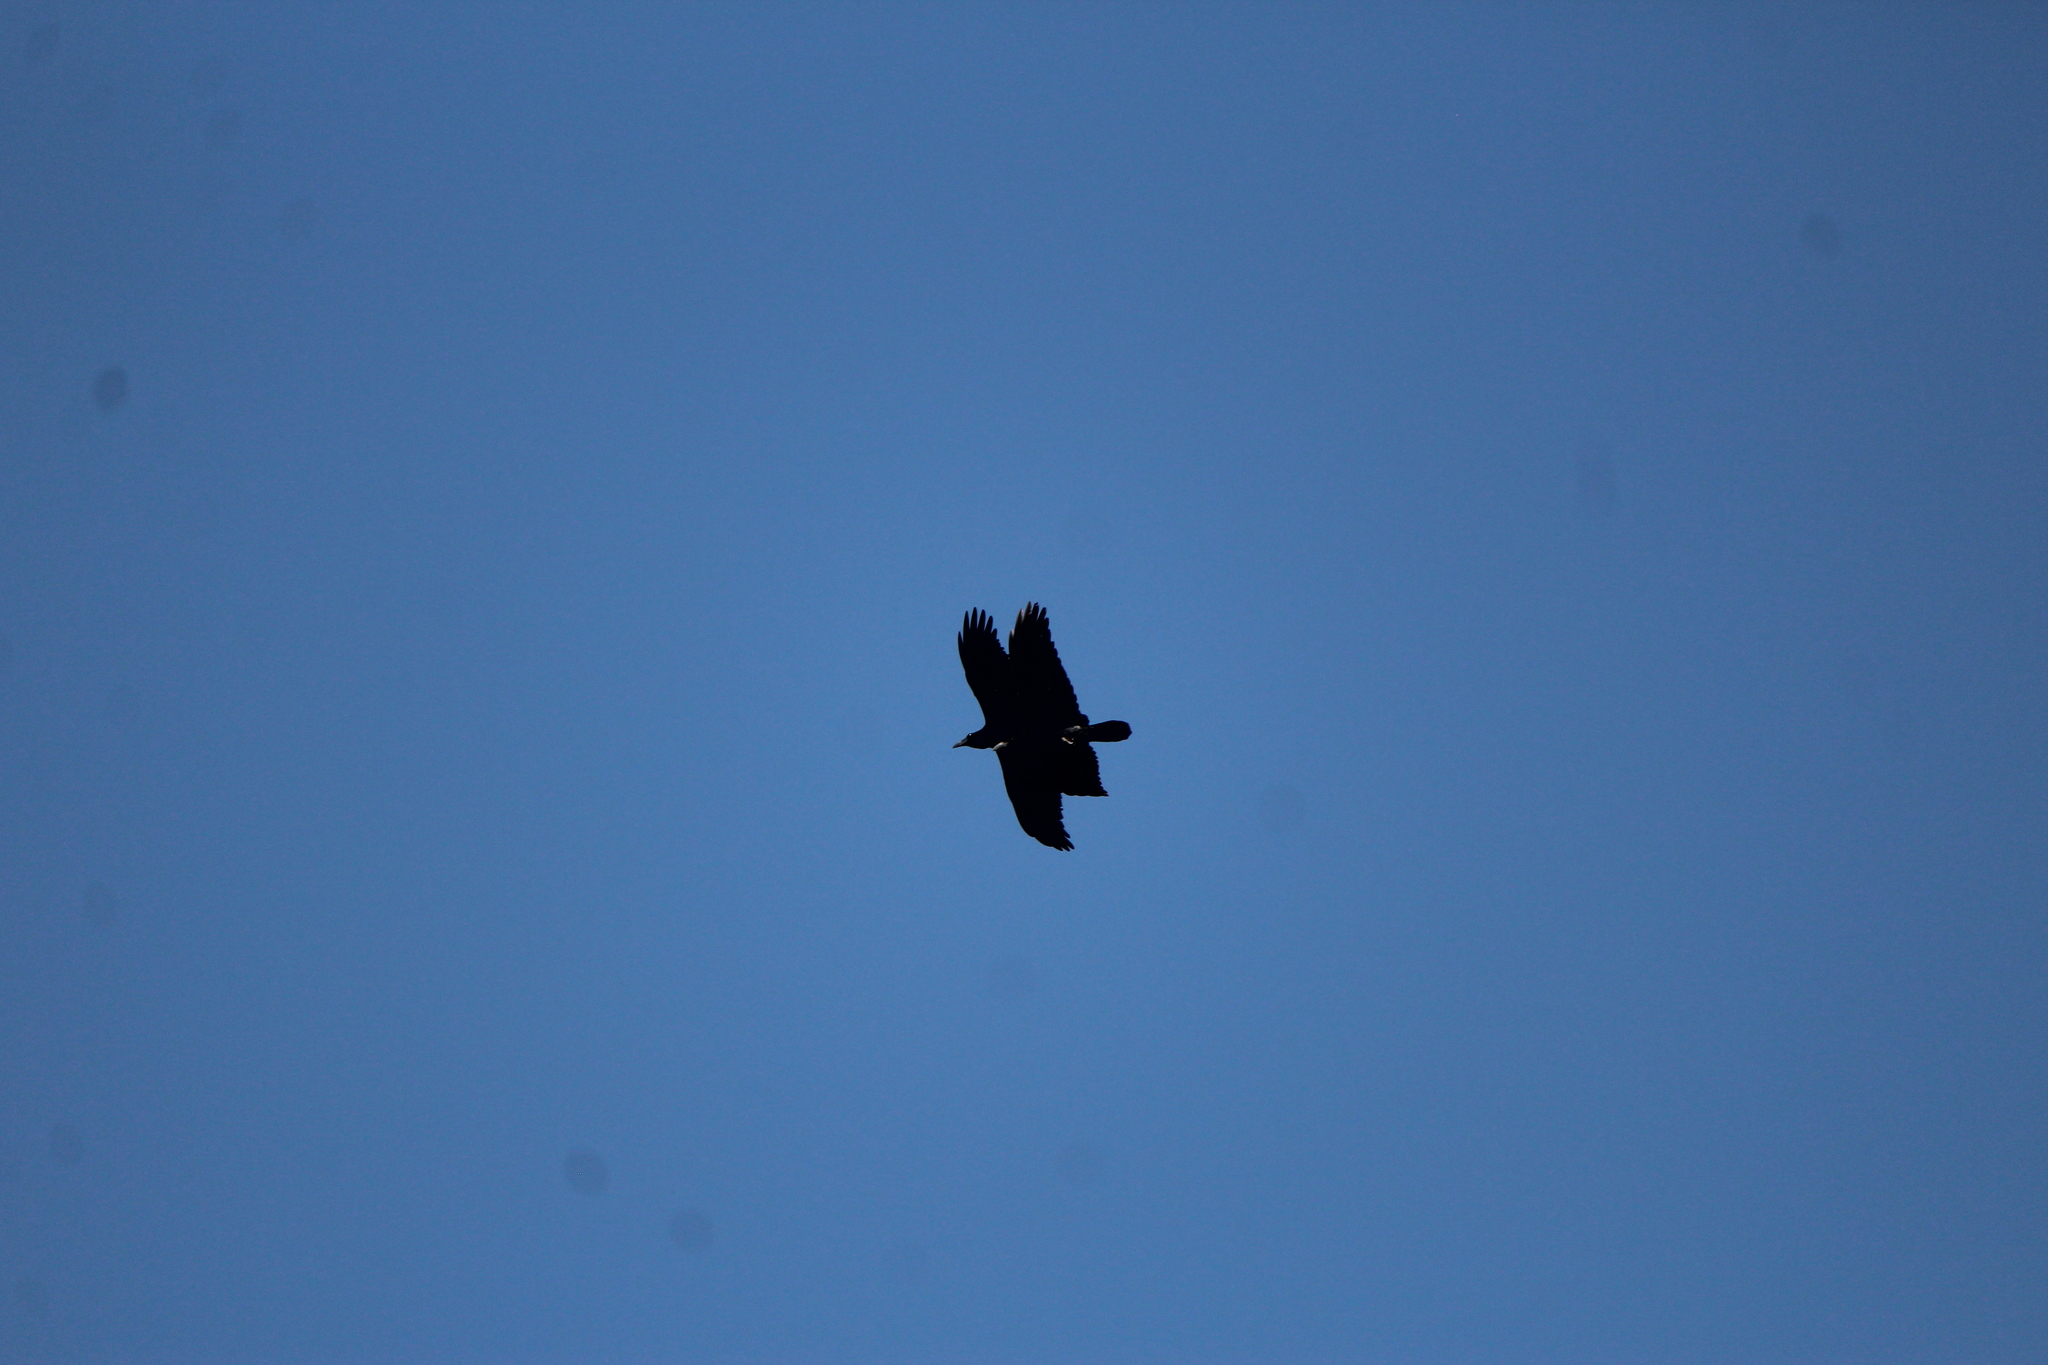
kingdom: Animalia
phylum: Chordata
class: Aves
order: Passeriformes
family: Corvidae
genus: Corvus
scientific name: Corvus corax
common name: Common raven
